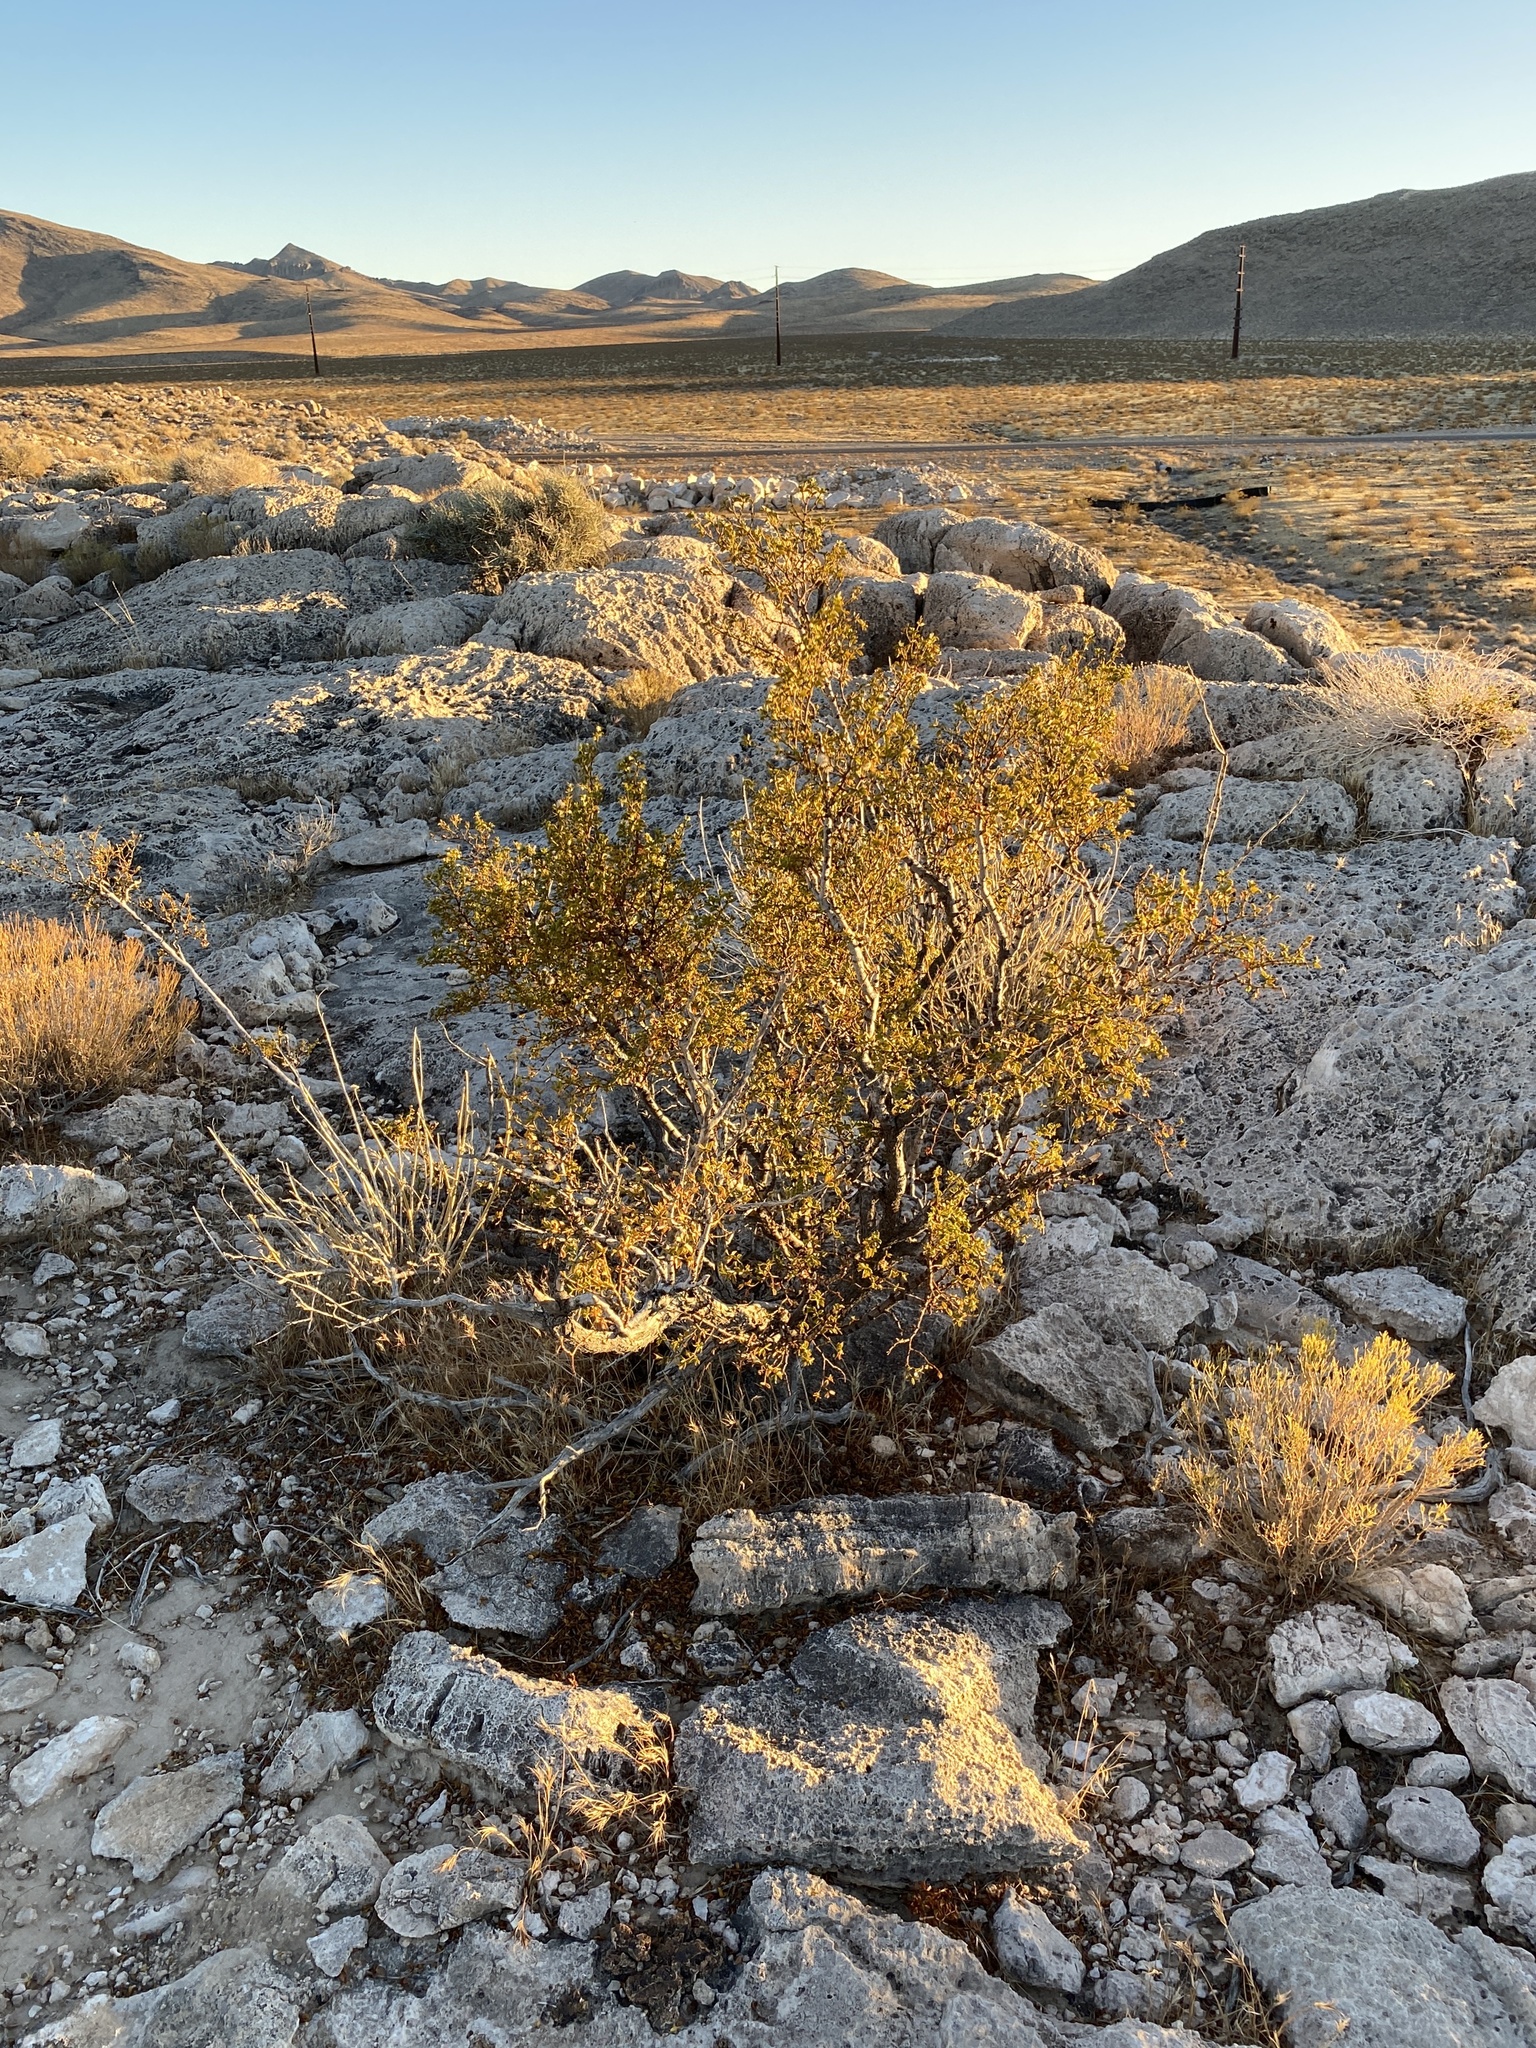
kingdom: Plantae
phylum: Tracheophyta
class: Magnoliopsida
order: Zygophyllales
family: Zygophyllaceae
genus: Larrea
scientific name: Larrea tridentata
